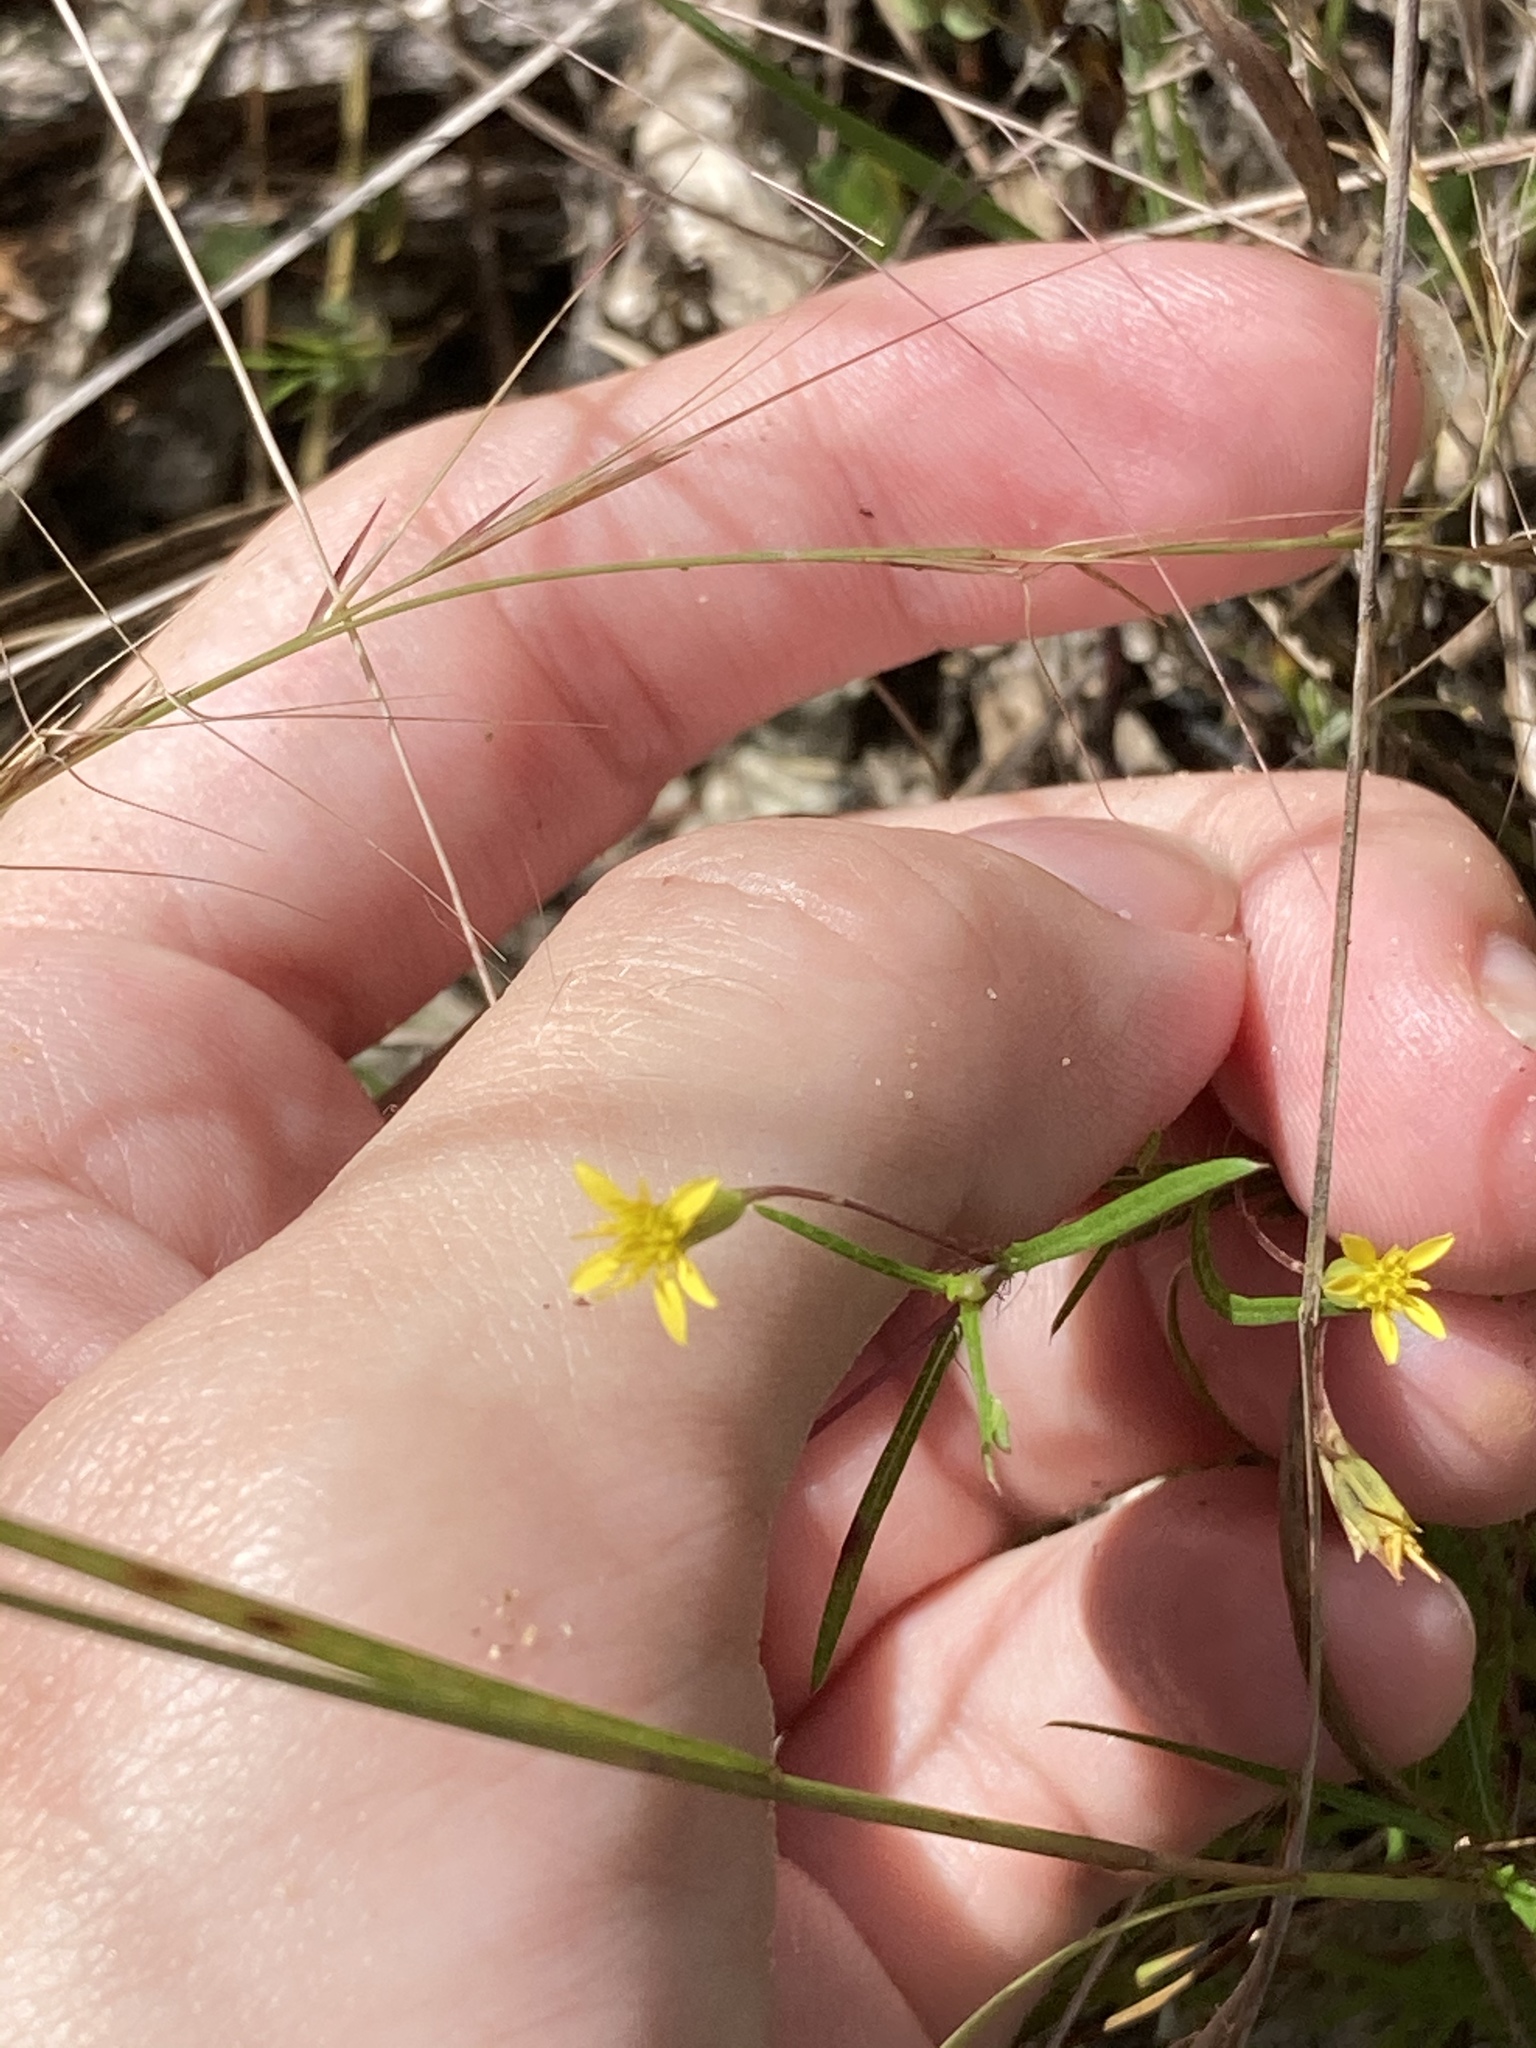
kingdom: Plantae
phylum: Tracheophyta
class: Magnoliopsida
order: Asterales
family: Asteraceae
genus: Pectis
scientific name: Pectis glaucescens
